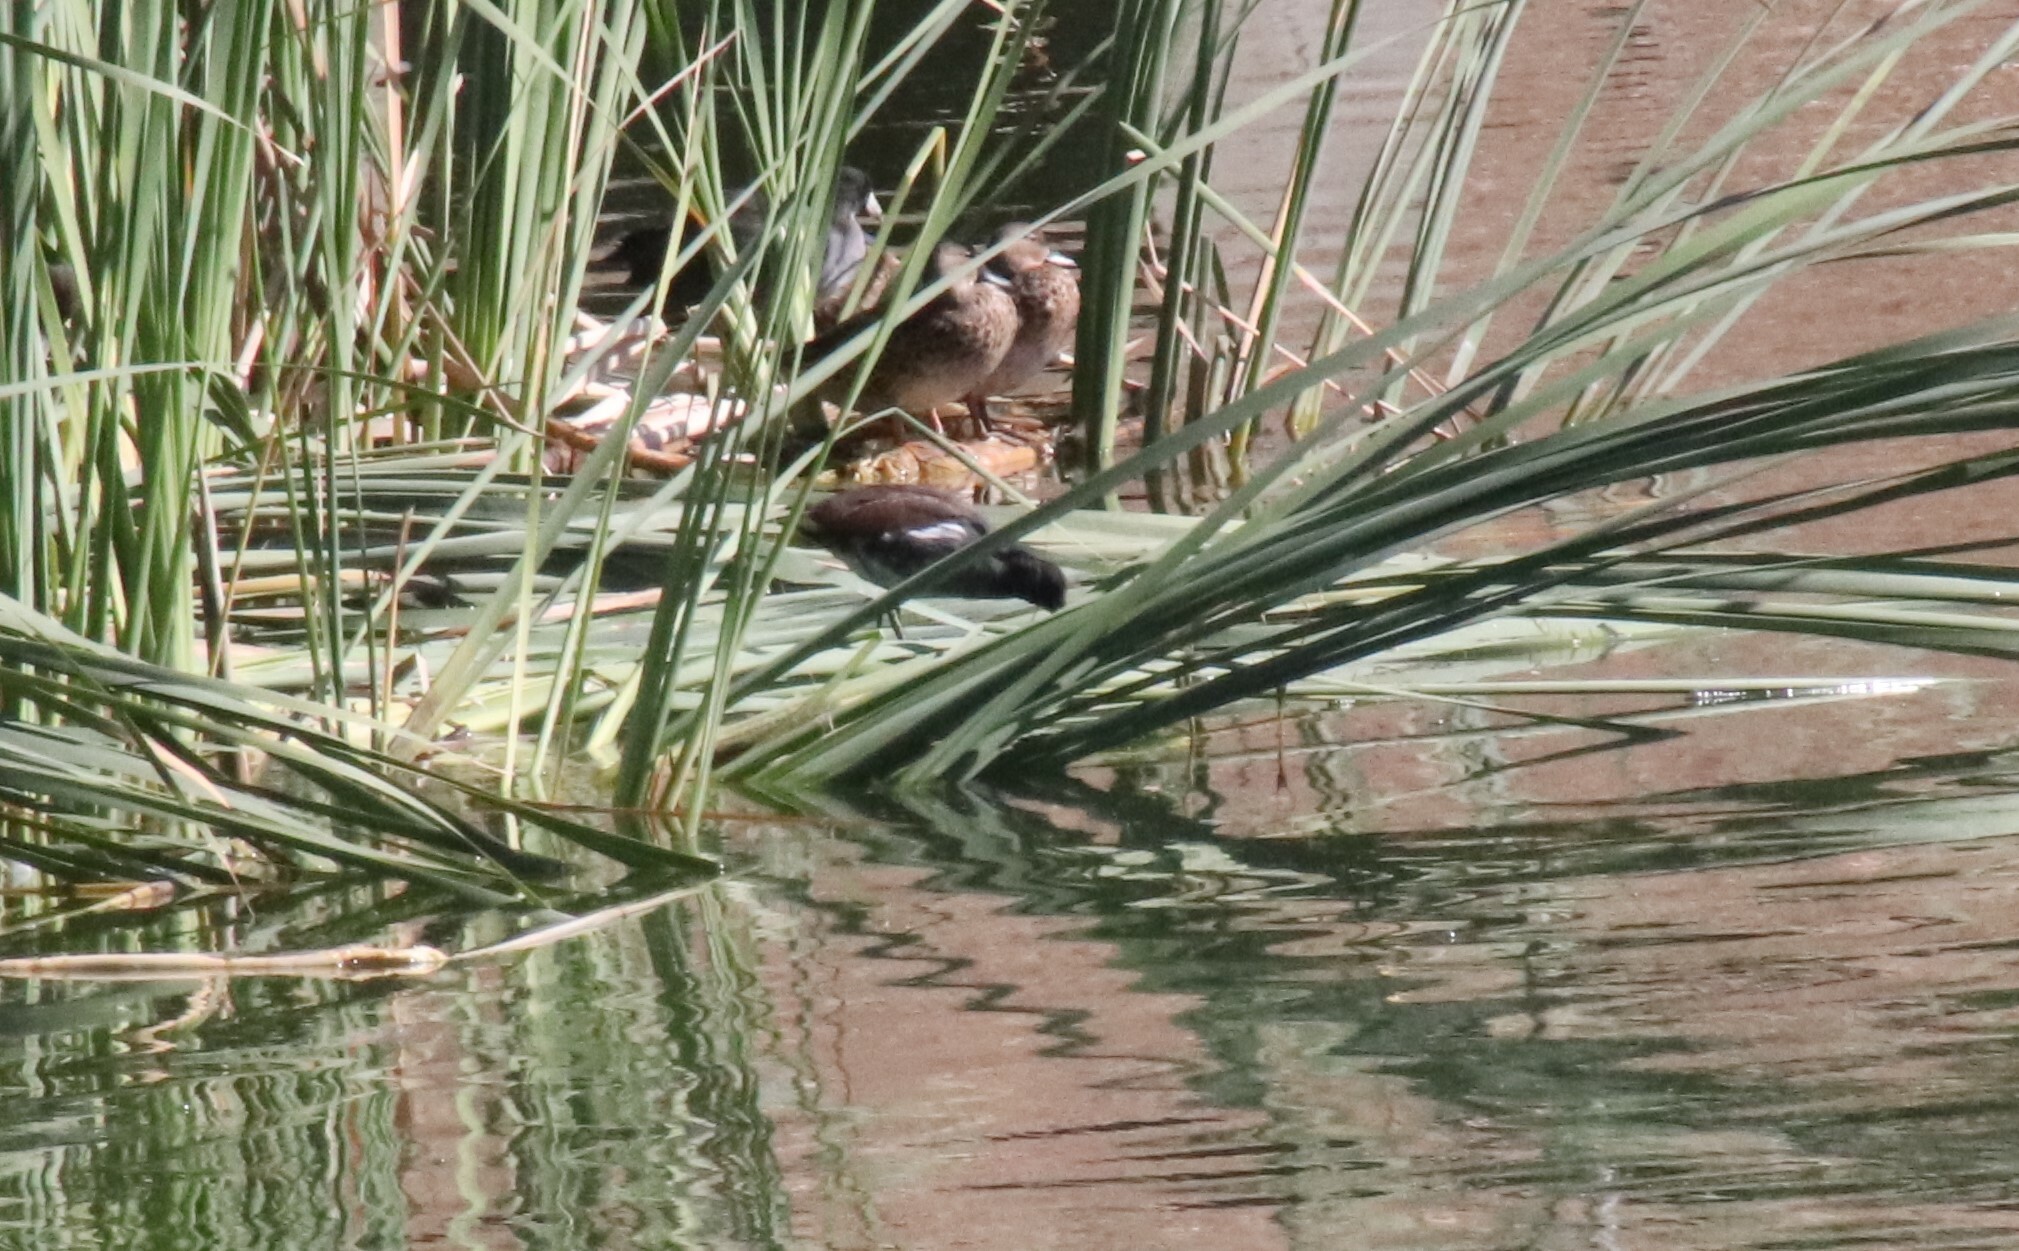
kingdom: Animalia
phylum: Chordata
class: Aves
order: Gruiformes
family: Rallidae
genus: Gallinula
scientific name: Gallinula chloropus
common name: Common moorhen
